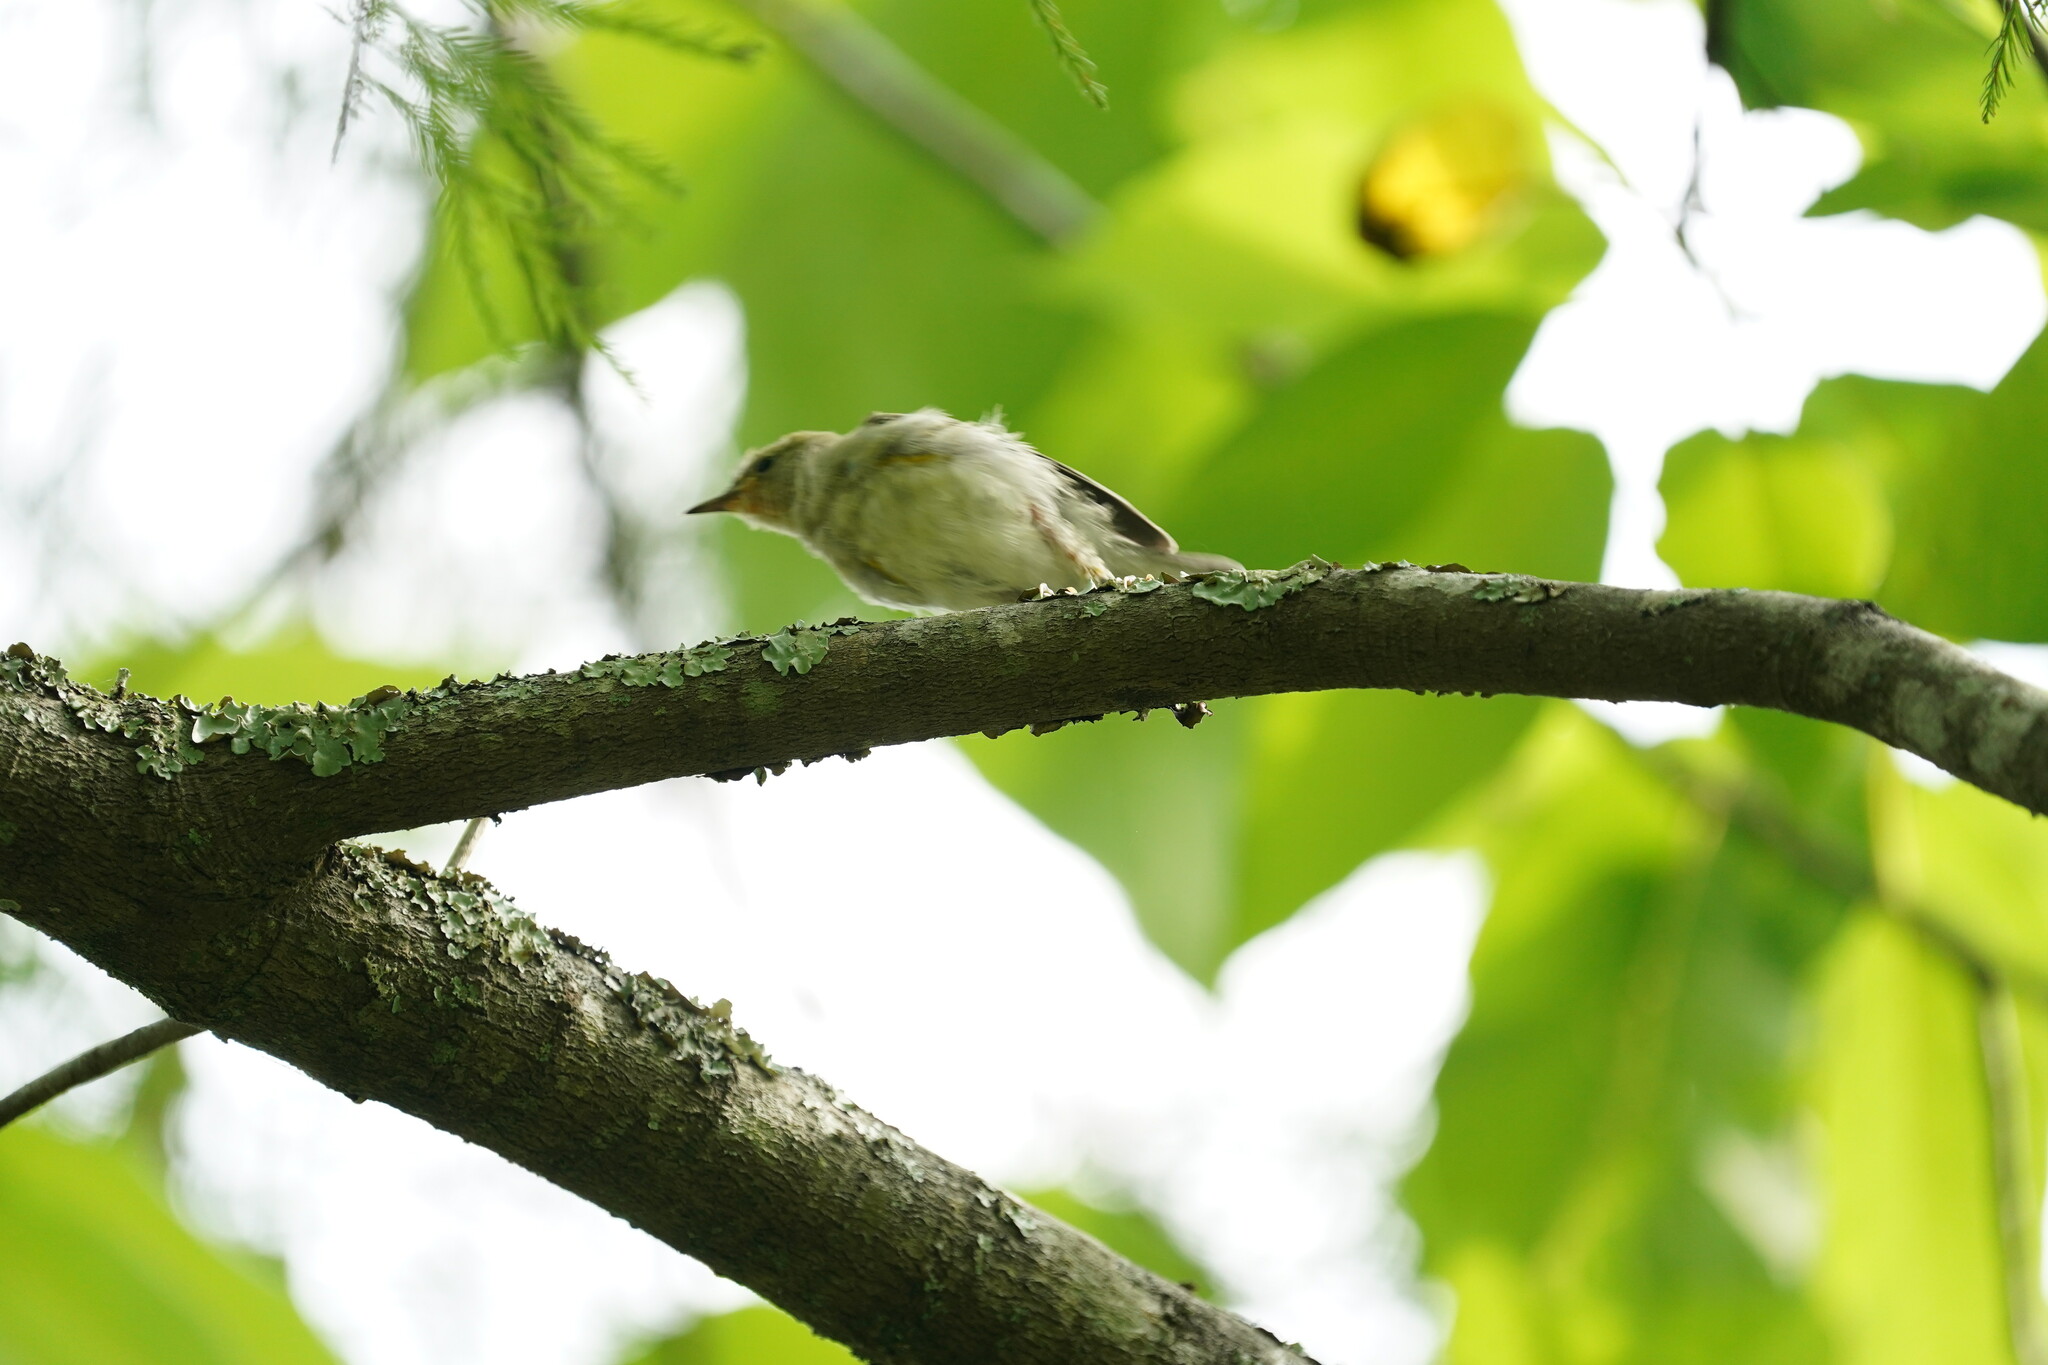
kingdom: Animalia
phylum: Chordata
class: Aves
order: Passeriformes
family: Parulidae
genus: Protonotaria
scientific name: Protonotaria citrea
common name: Prothonotary warbler
